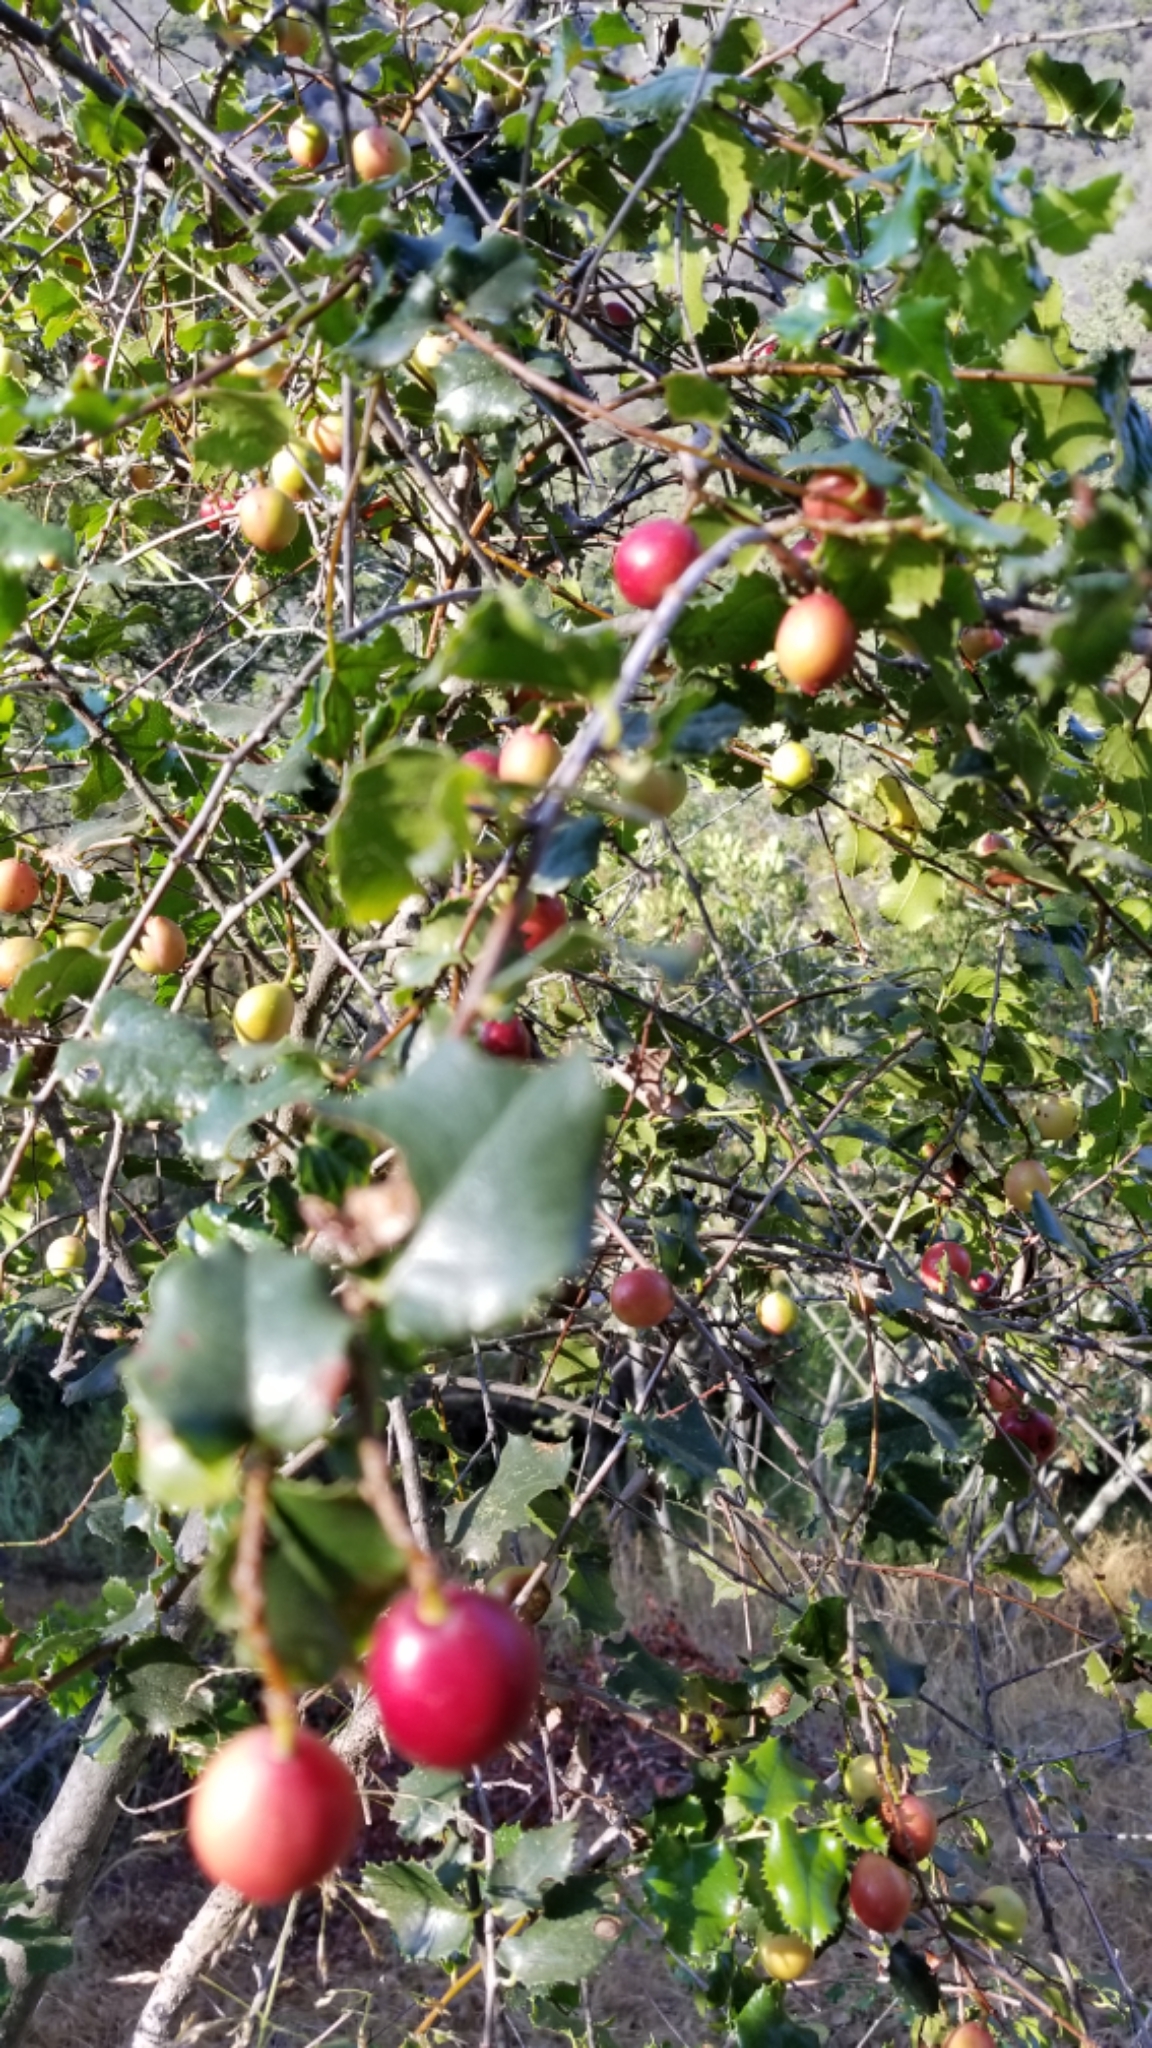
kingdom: Plantae
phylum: Tracheophyta
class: Magnoliopsida
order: Rosales
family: Rosaceae
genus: Prunus
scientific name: Prunus ilicifolia
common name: Hollyleaf cherry
